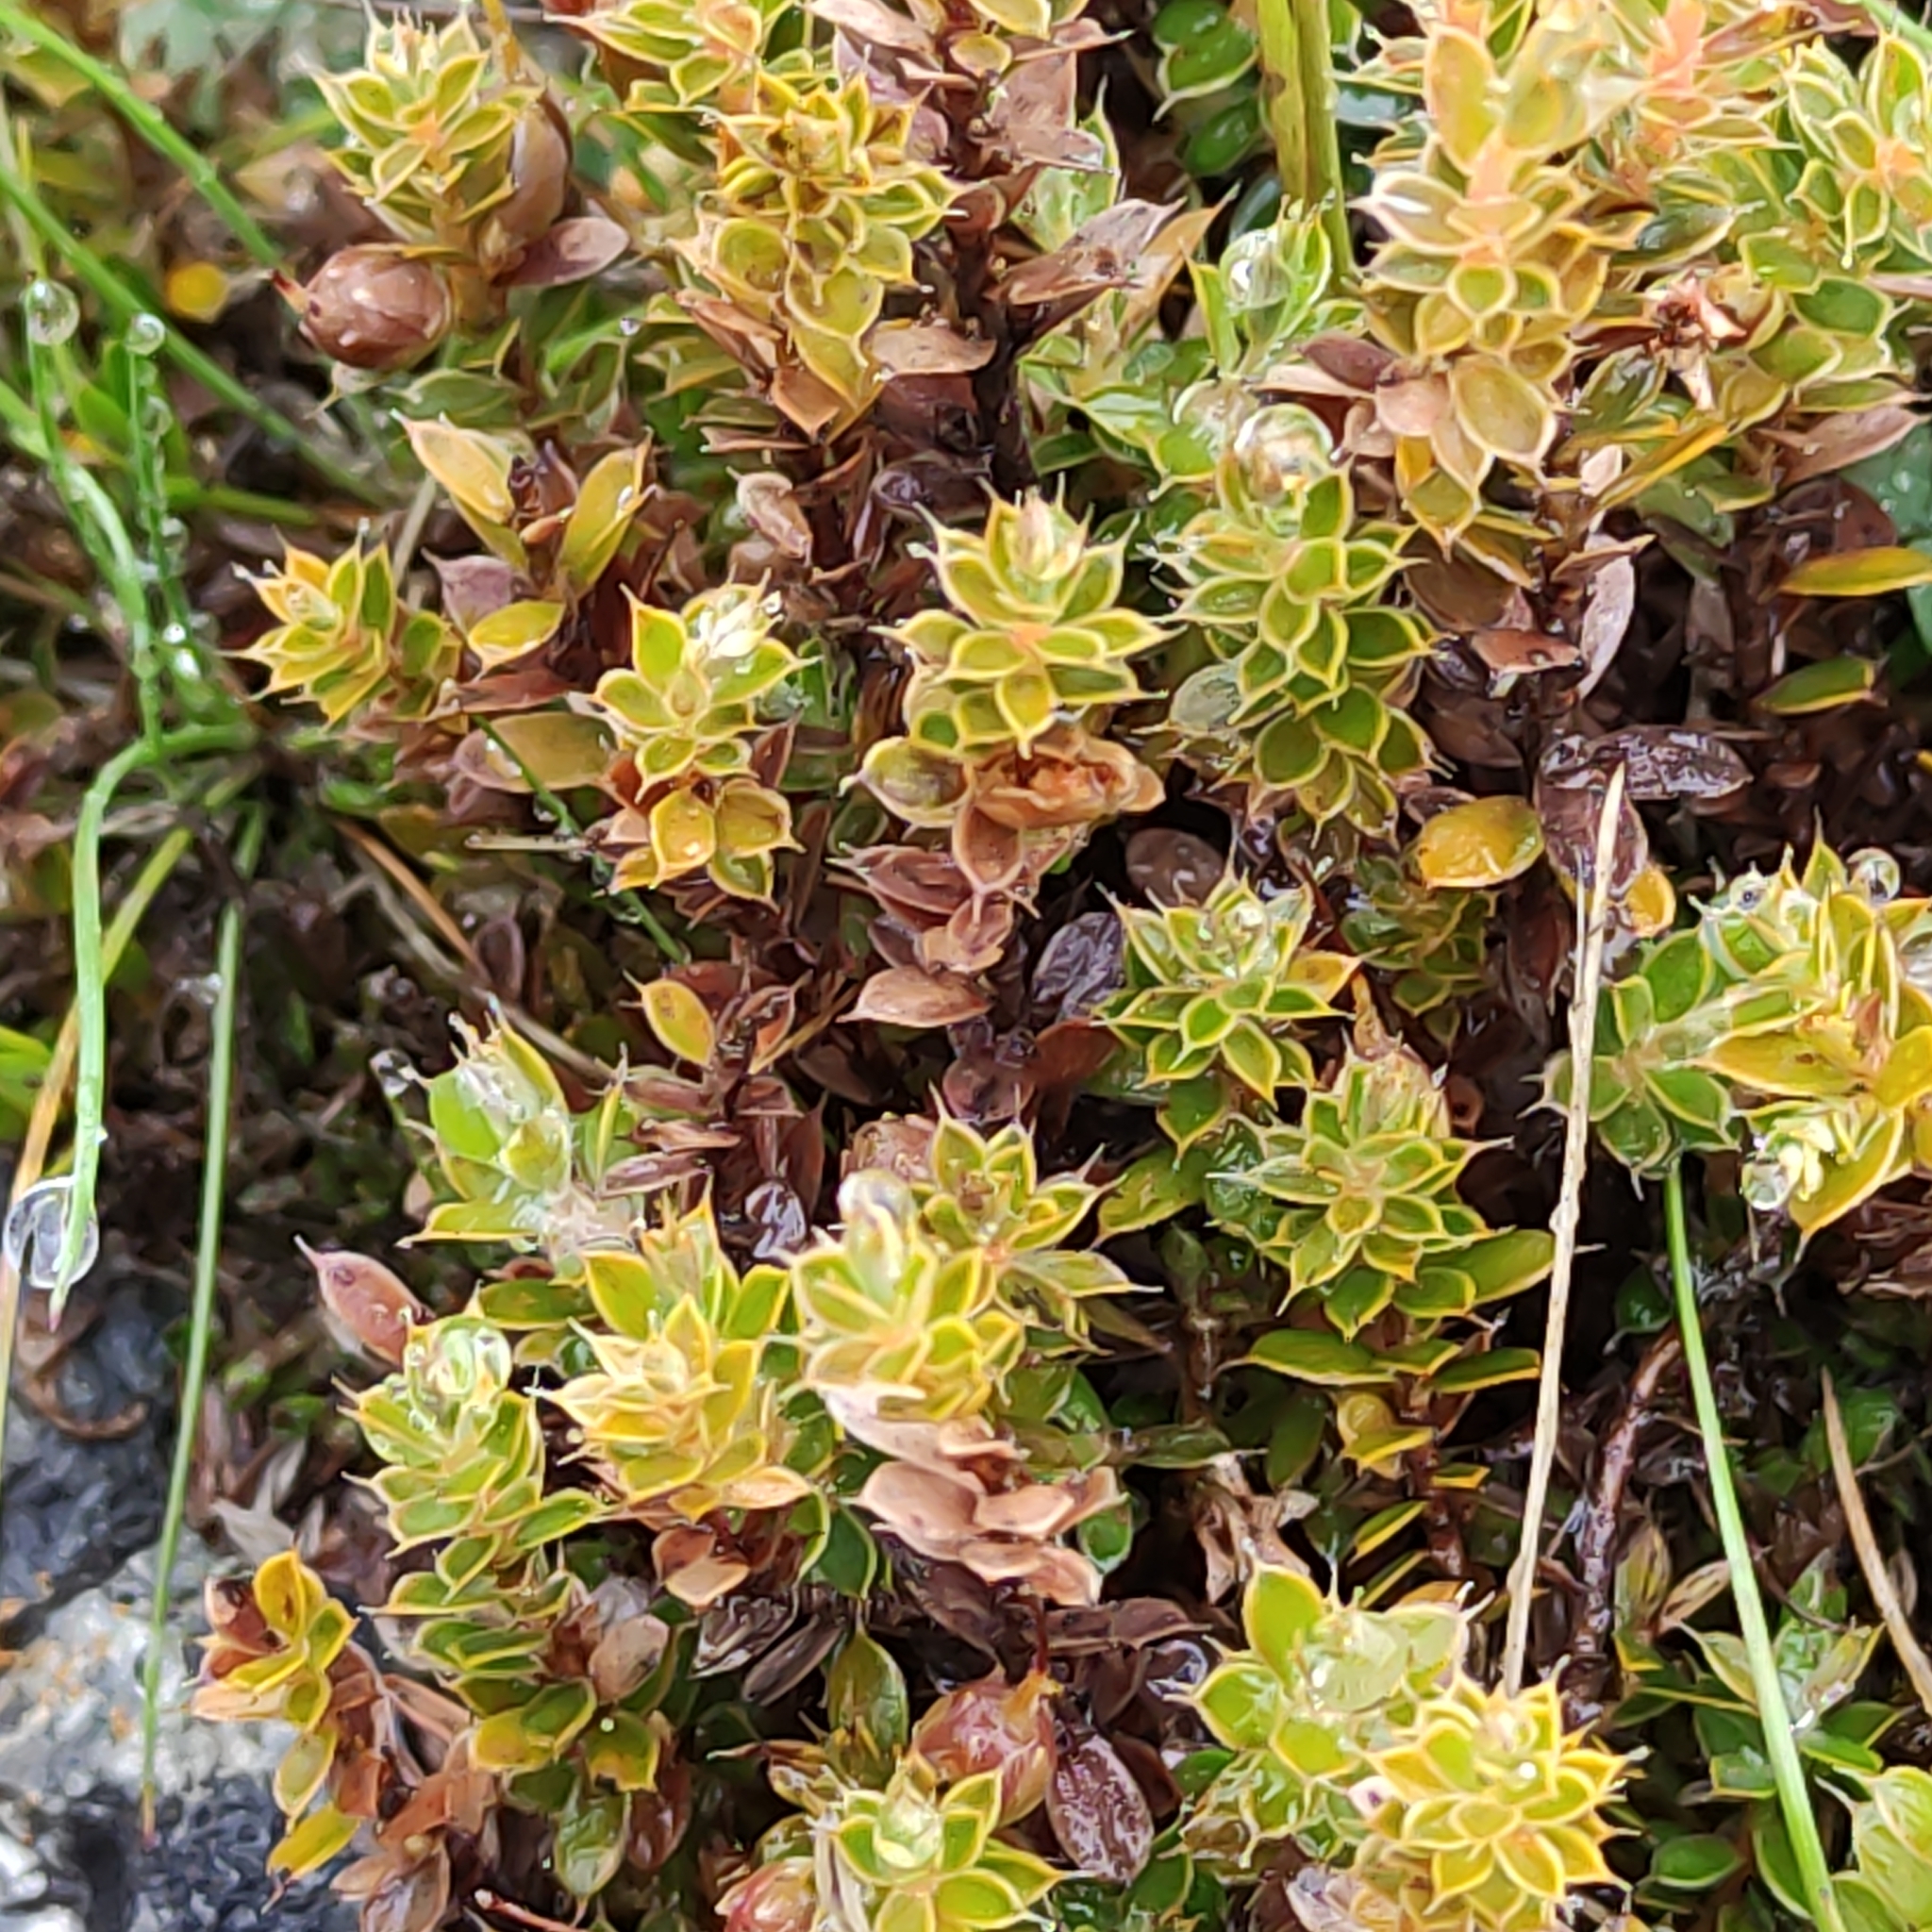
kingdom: Plantae
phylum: Tracheophyta
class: Magnoliopsida
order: Ericales
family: Ericaceae
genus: Styphelia
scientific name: Styphelia nesophila
